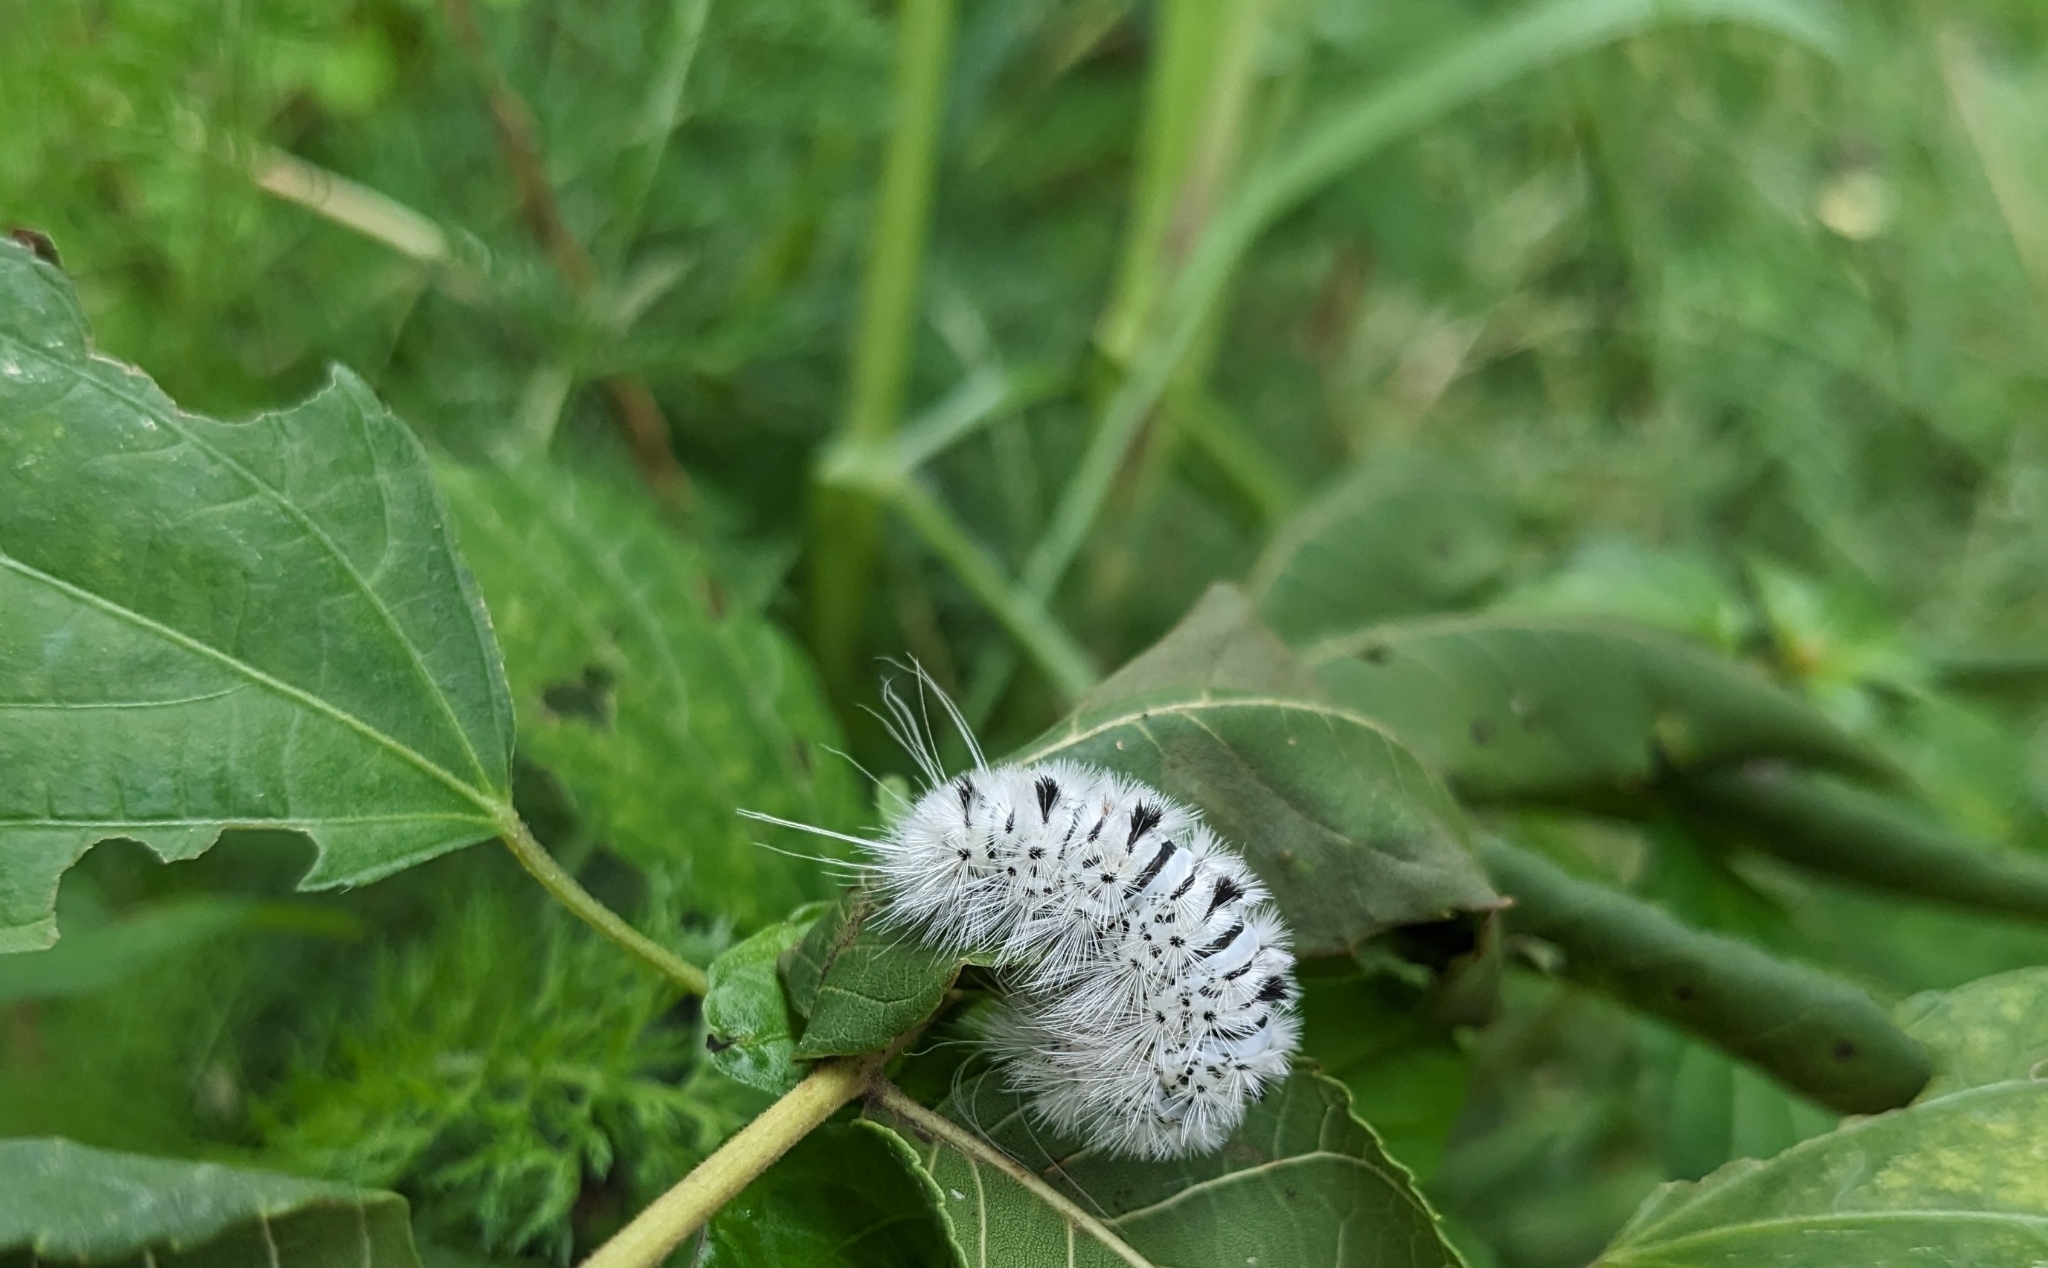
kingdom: Animalia
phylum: Arthropoda
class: Insecta
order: Lepidoptera
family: Erebidae
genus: Lophocampa
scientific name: Lophocampa caryae
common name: Hickory tussock moth
